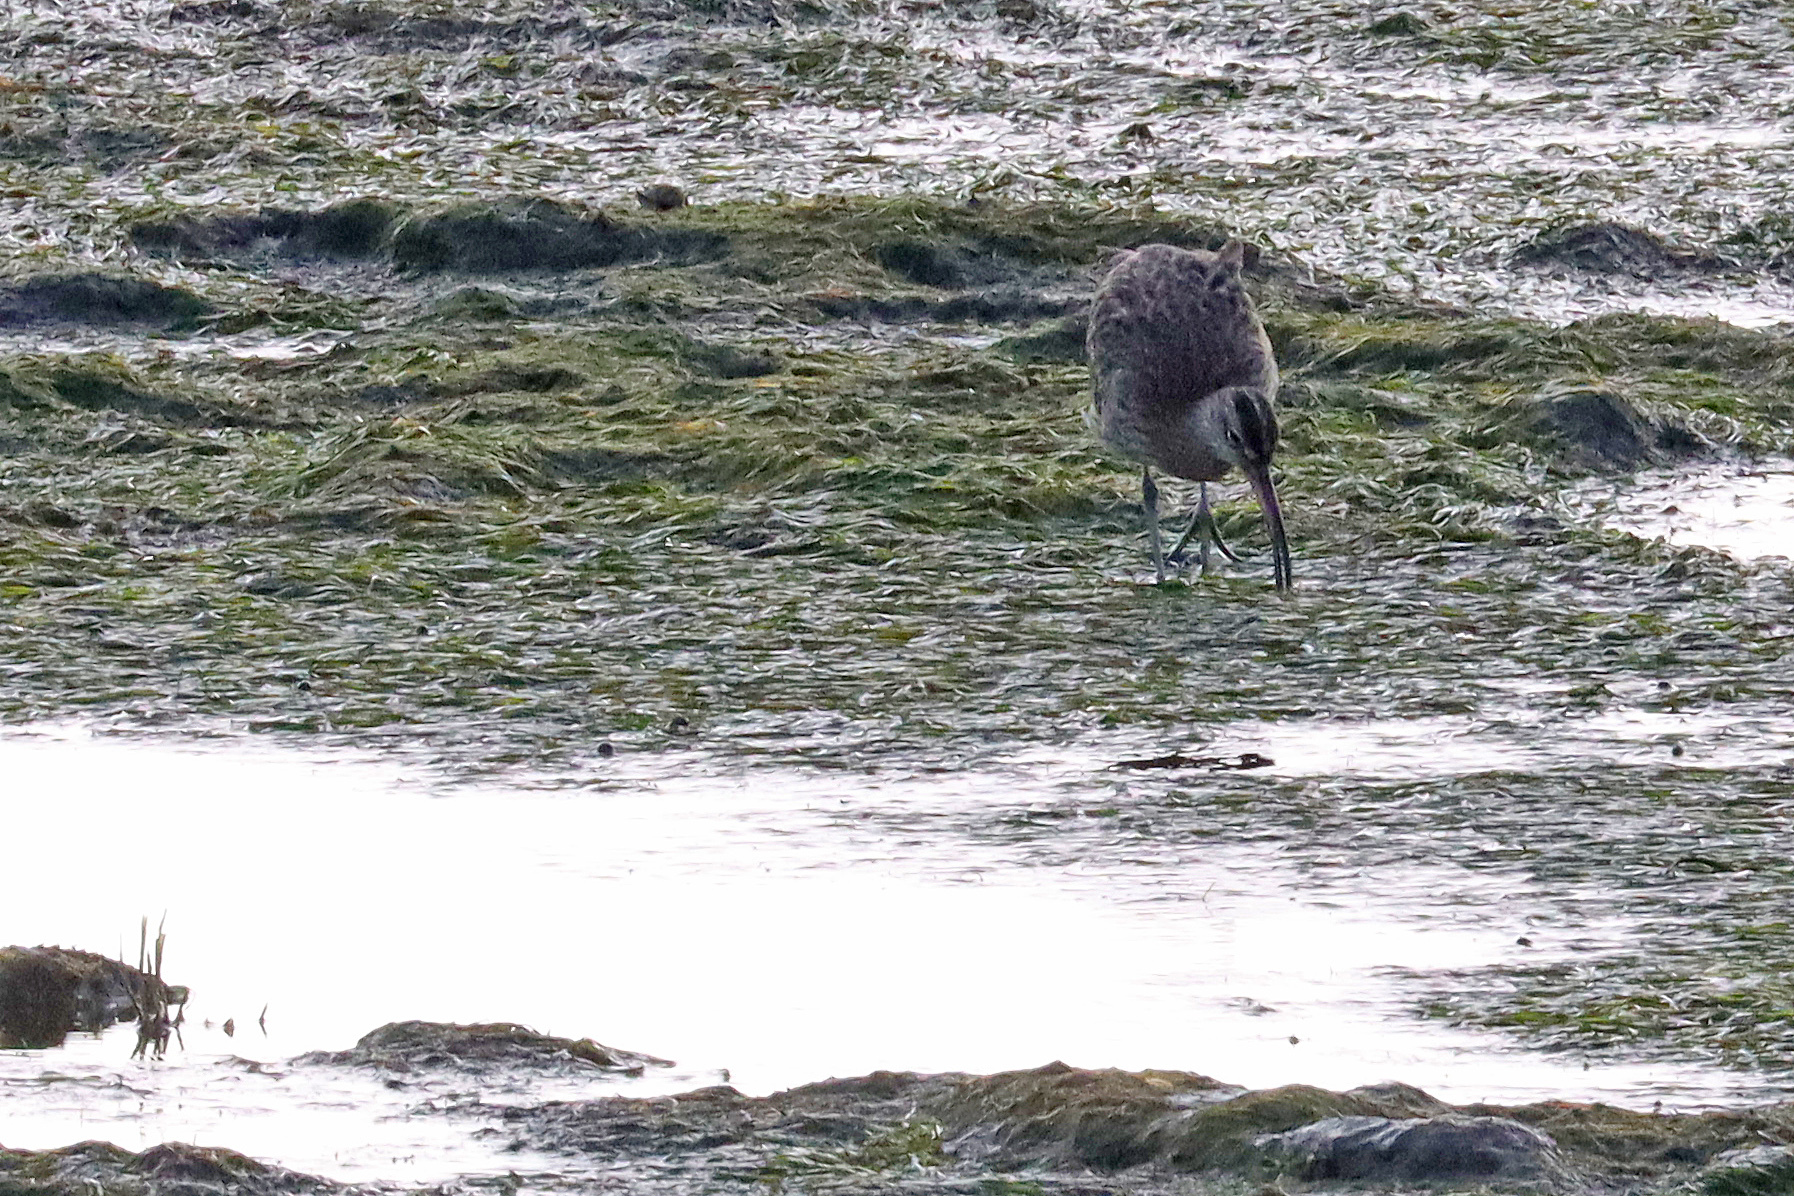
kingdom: Animalia
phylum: Chordata
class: Aves
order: Charadriiformes
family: Scolopacidae
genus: Numenius
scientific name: Numenius phaeopus
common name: Whimbrel
